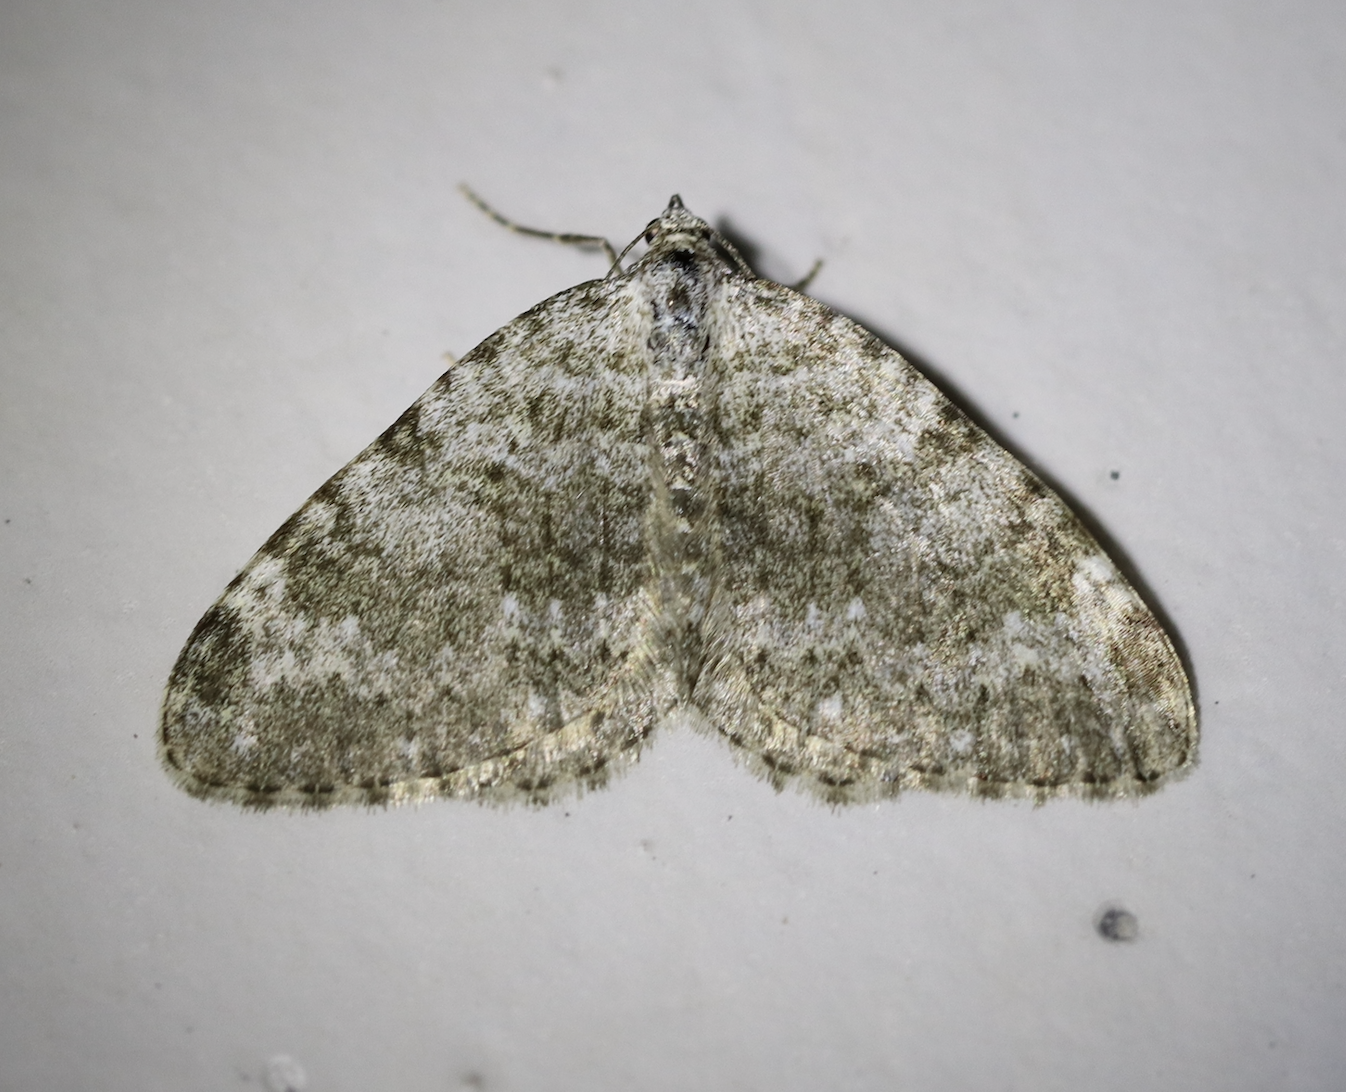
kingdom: Animalia
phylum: Arthropoda
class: Insecta
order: Lepidoptera
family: Geometridae
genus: Nebula
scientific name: Nebula salicata
